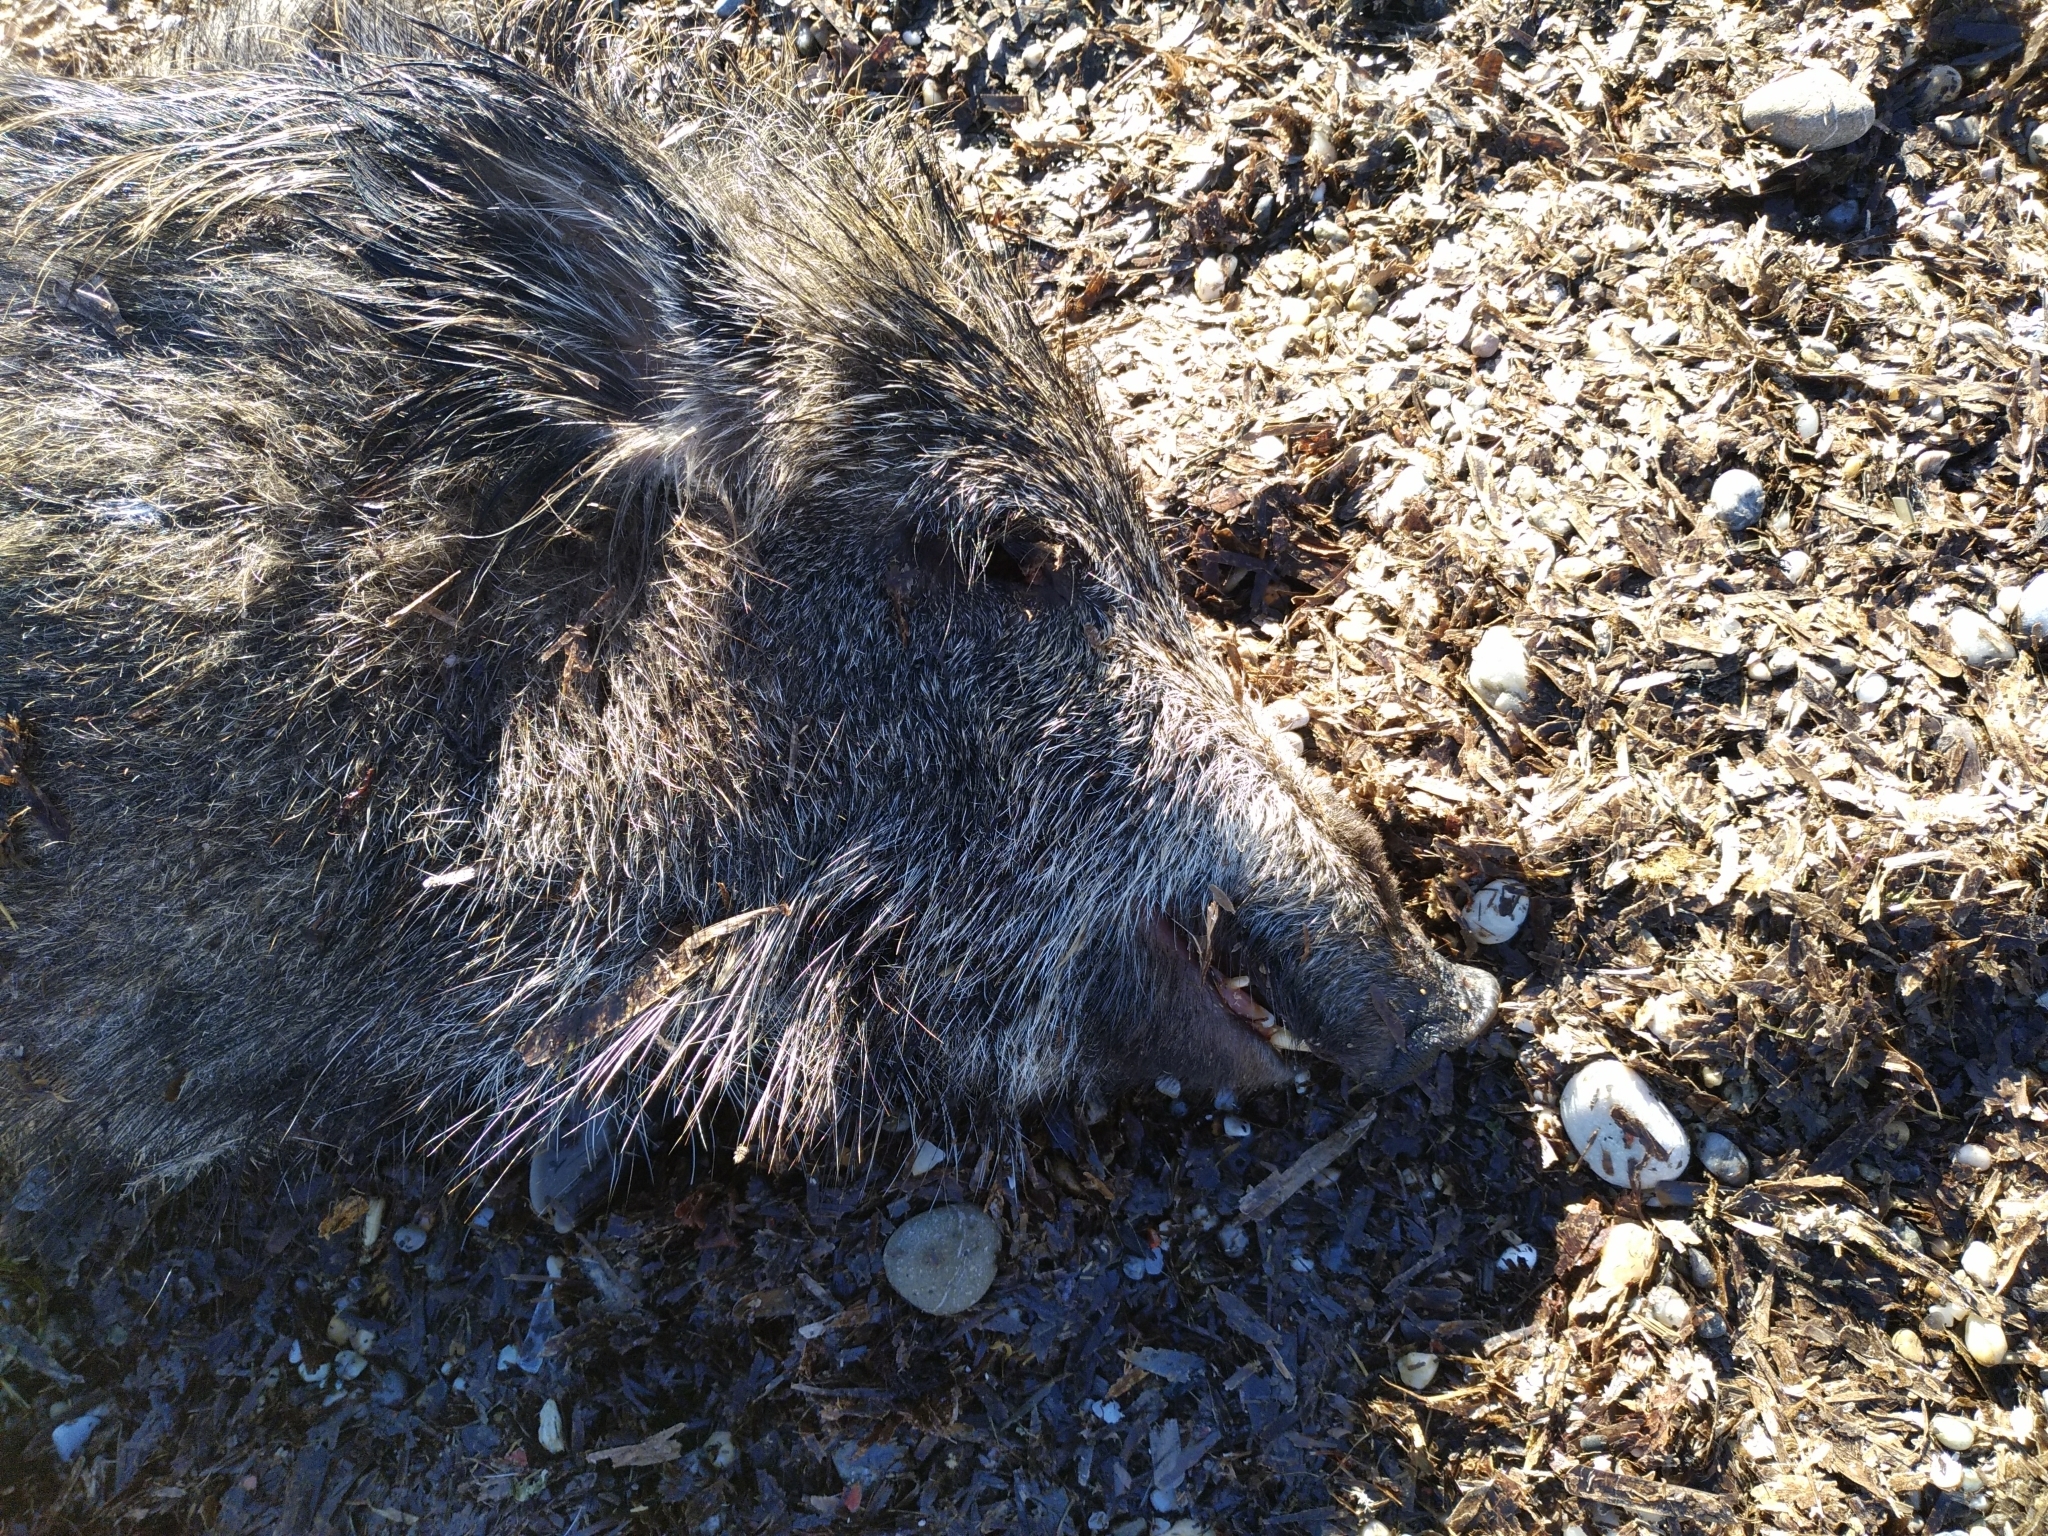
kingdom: Animalia
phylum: Chordata
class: Mammalia
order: Artiodactyla
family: Suidae
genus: Sus
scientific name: Sus scrofa
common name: Wild boar
